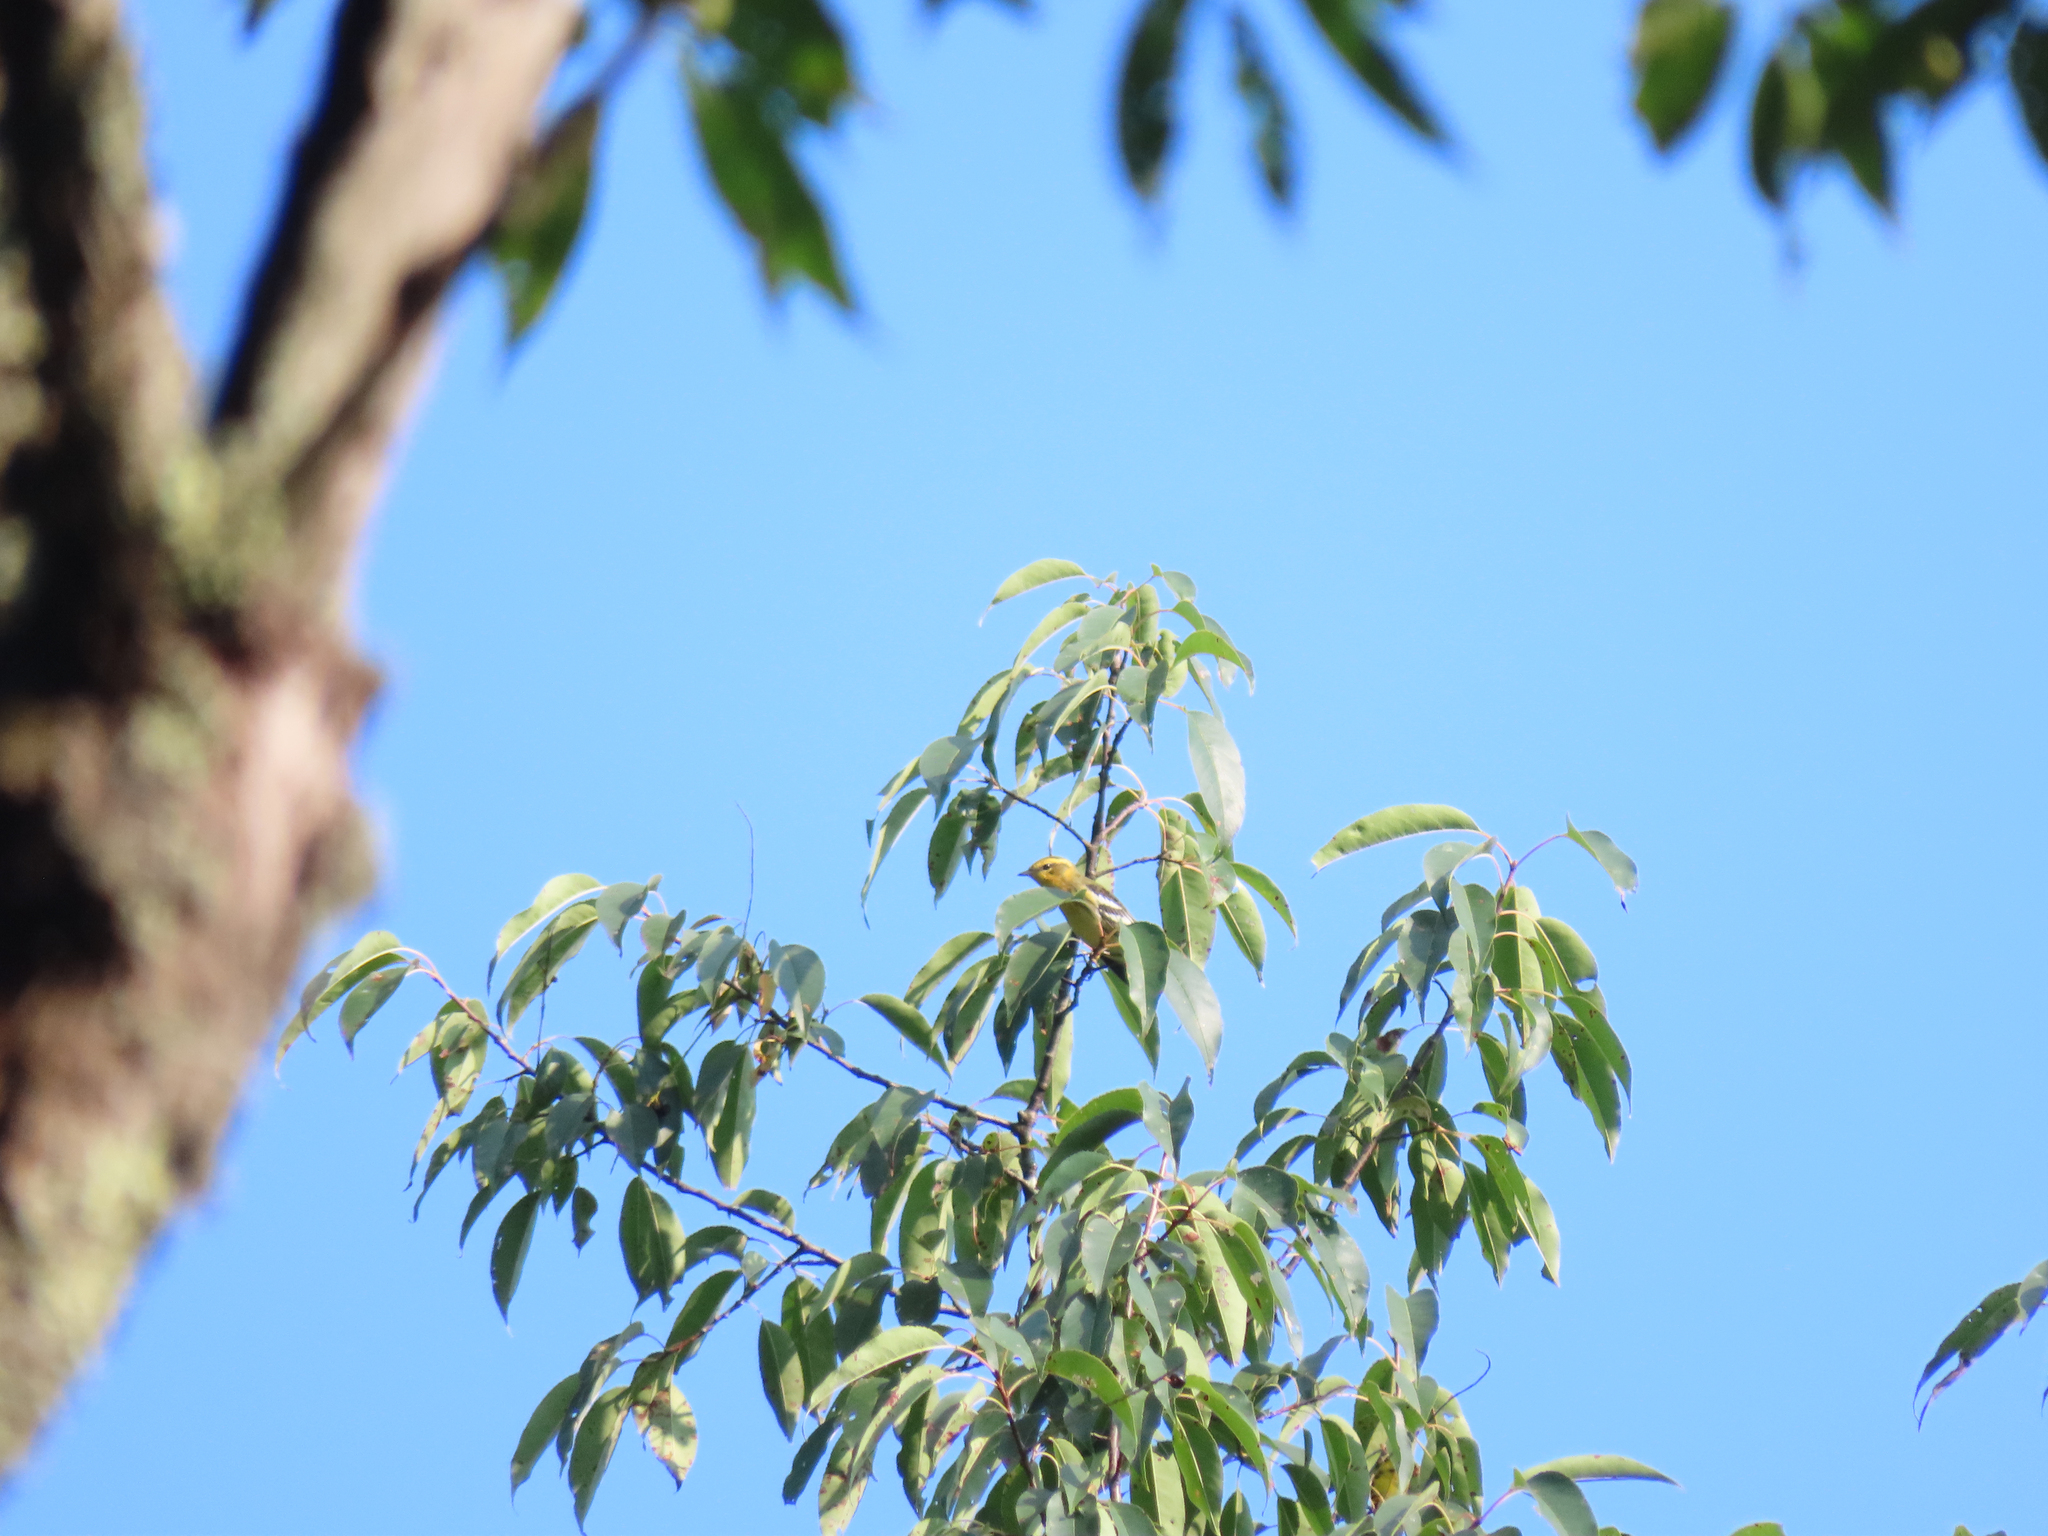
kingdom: Animalia
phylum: Chordata
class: Aves
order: Passeriformes
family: Parulidae
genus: Setophaga
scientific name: Setophaga fusca
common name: Blackburnian warbler
